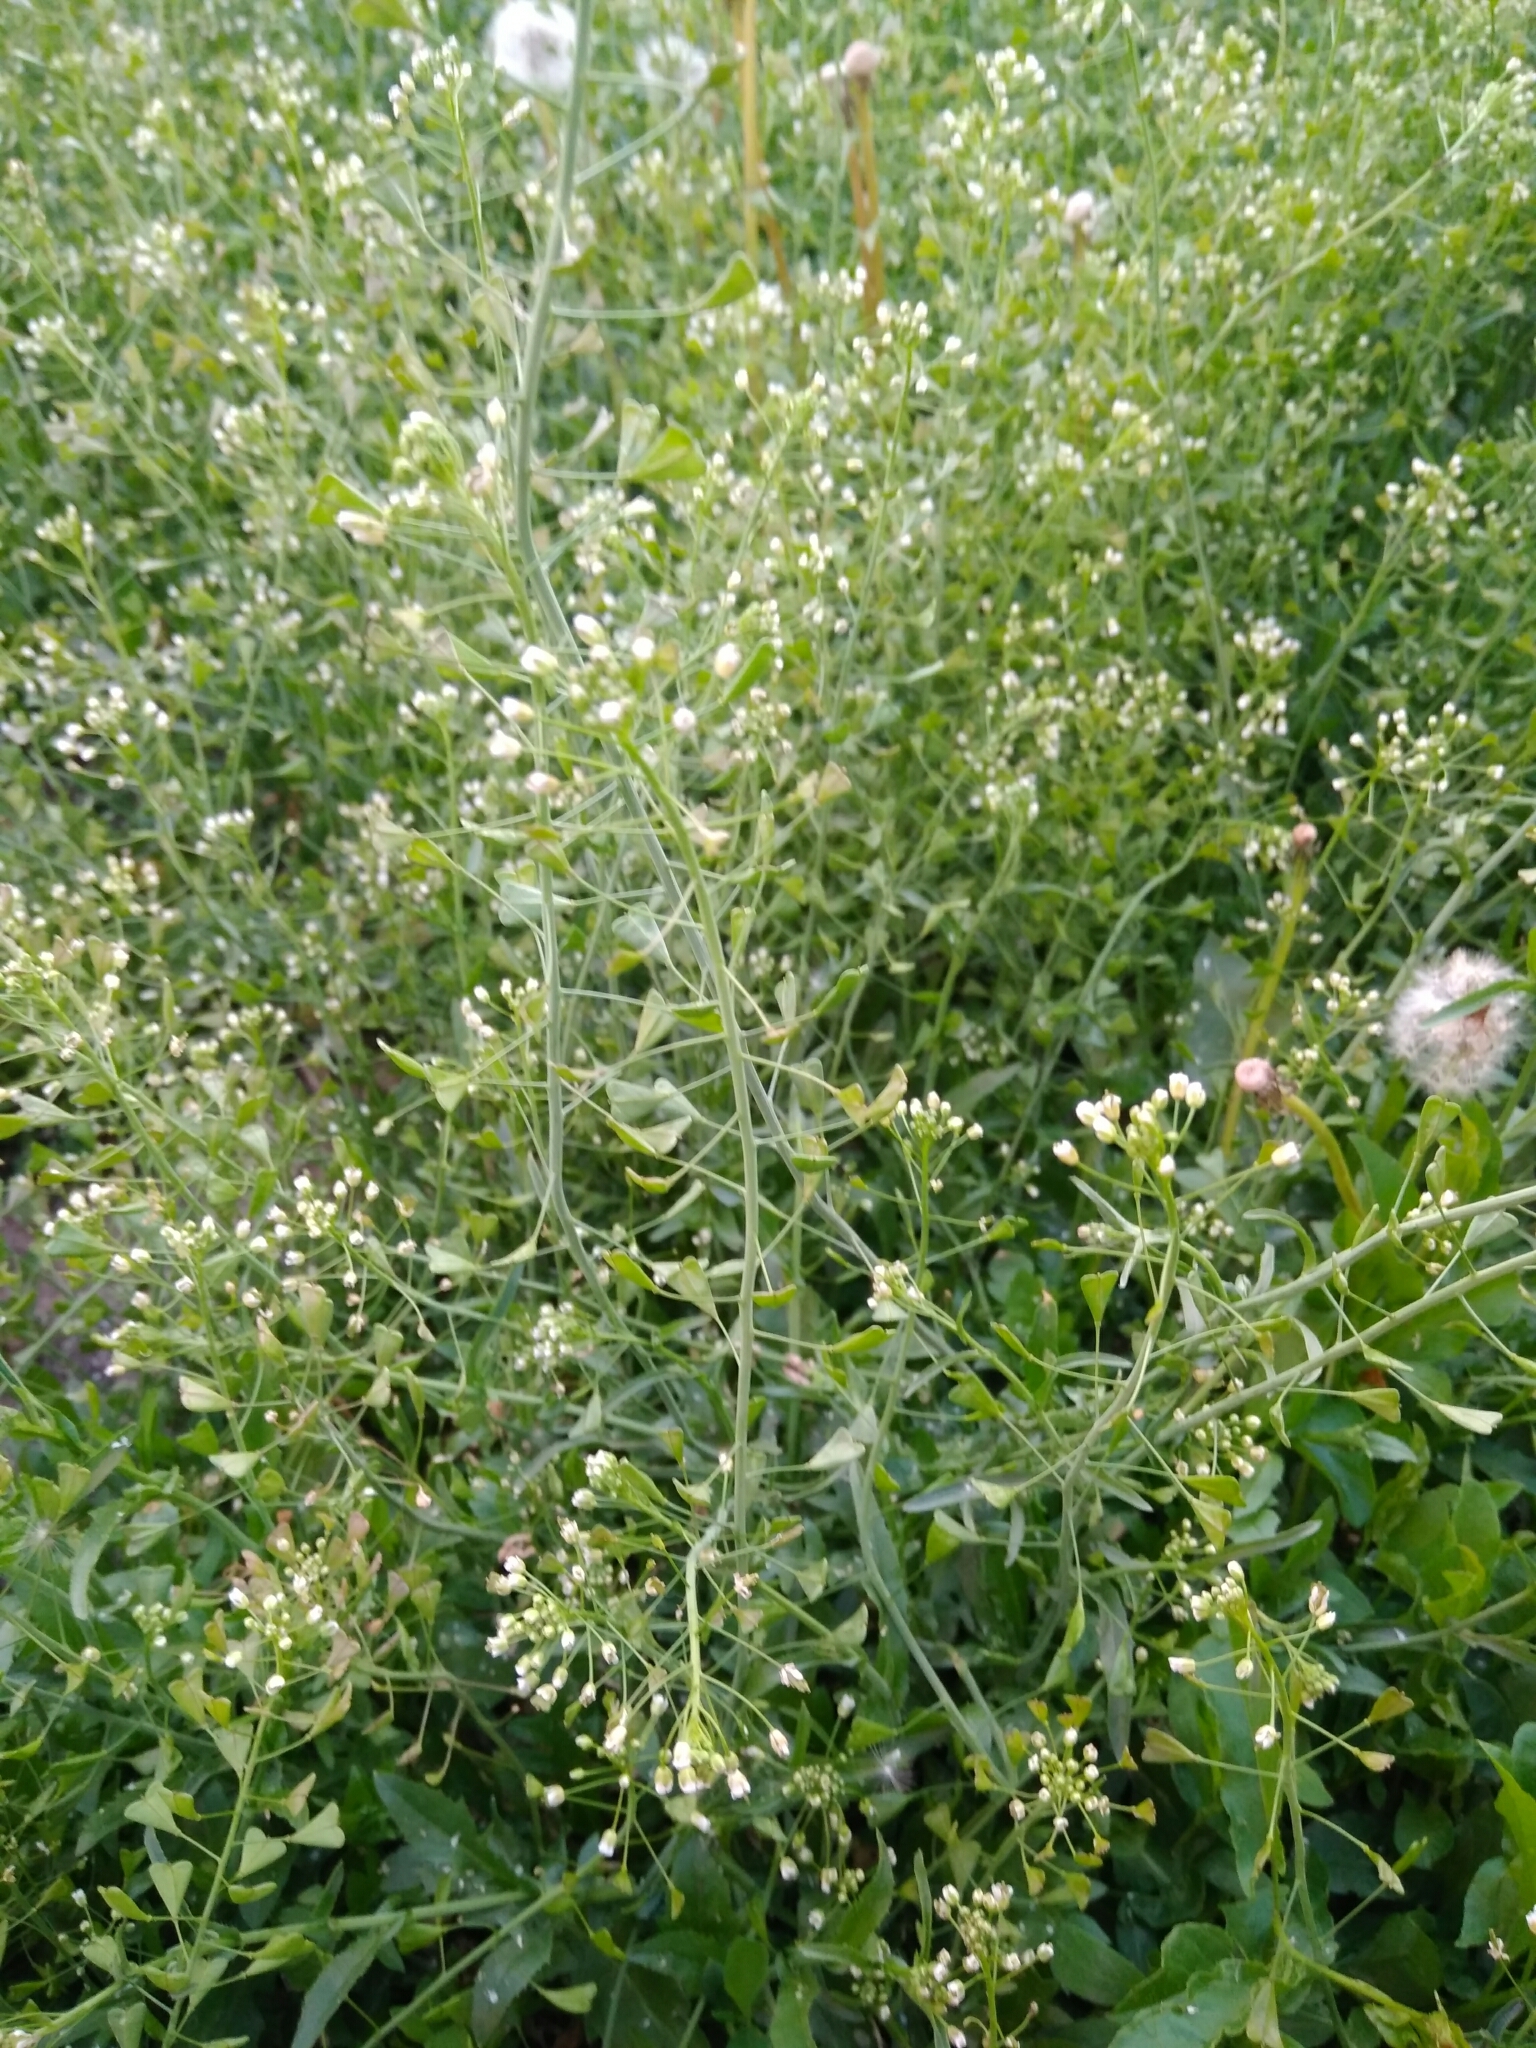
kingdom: Plantae
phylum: Tracheophyta
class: Magnoliopsida
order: Brassicales
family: Brassicaceae
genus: Capsella
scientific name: Capsella bursa-pastoris
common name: Shepherd's purse
